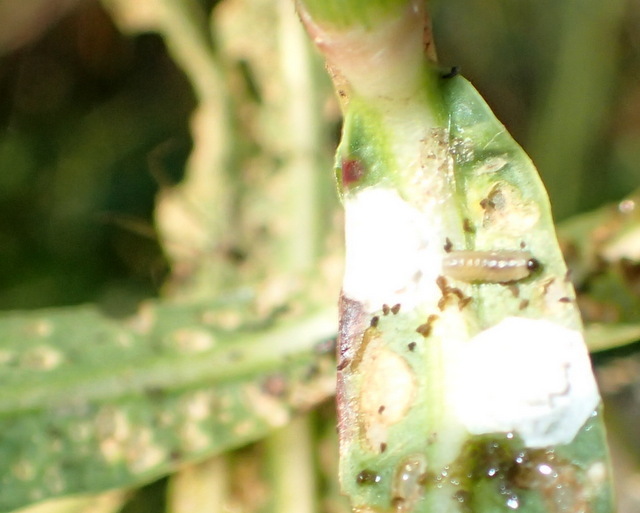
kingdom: Animalia
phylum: Arthropoda
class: Insecta
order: Coleoptera
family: Chrysomelidae
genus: Agasicles
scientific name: Agasicles hygrophila
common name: Alligatorweed flea beetle
